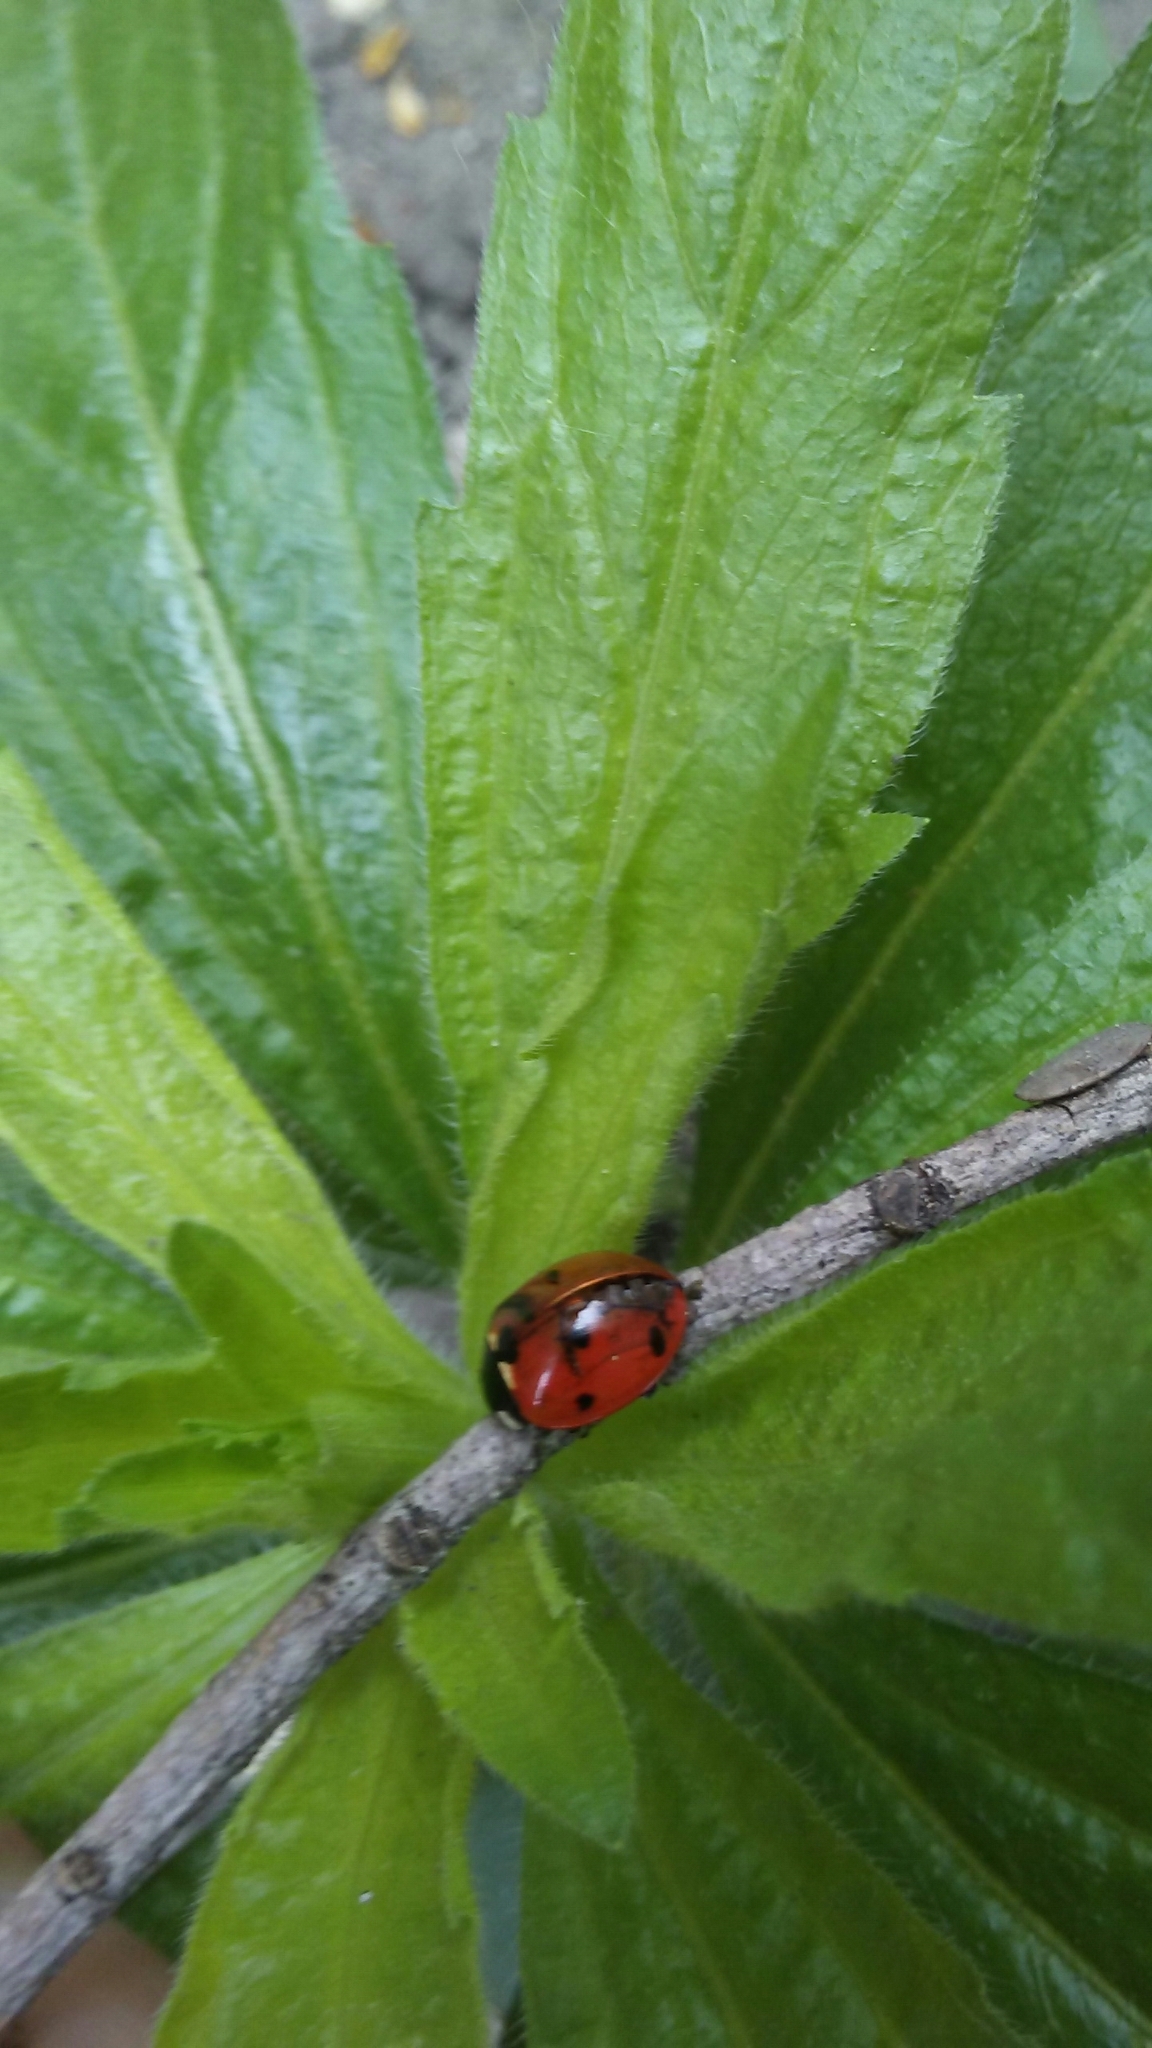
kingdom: Animalia
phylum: Arthropoda
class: Insecta
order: Coleoptera
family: Coccinellidae
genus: Coccinella
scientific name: Coccinella septempunctata
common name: Sevenspotted lady beetle
